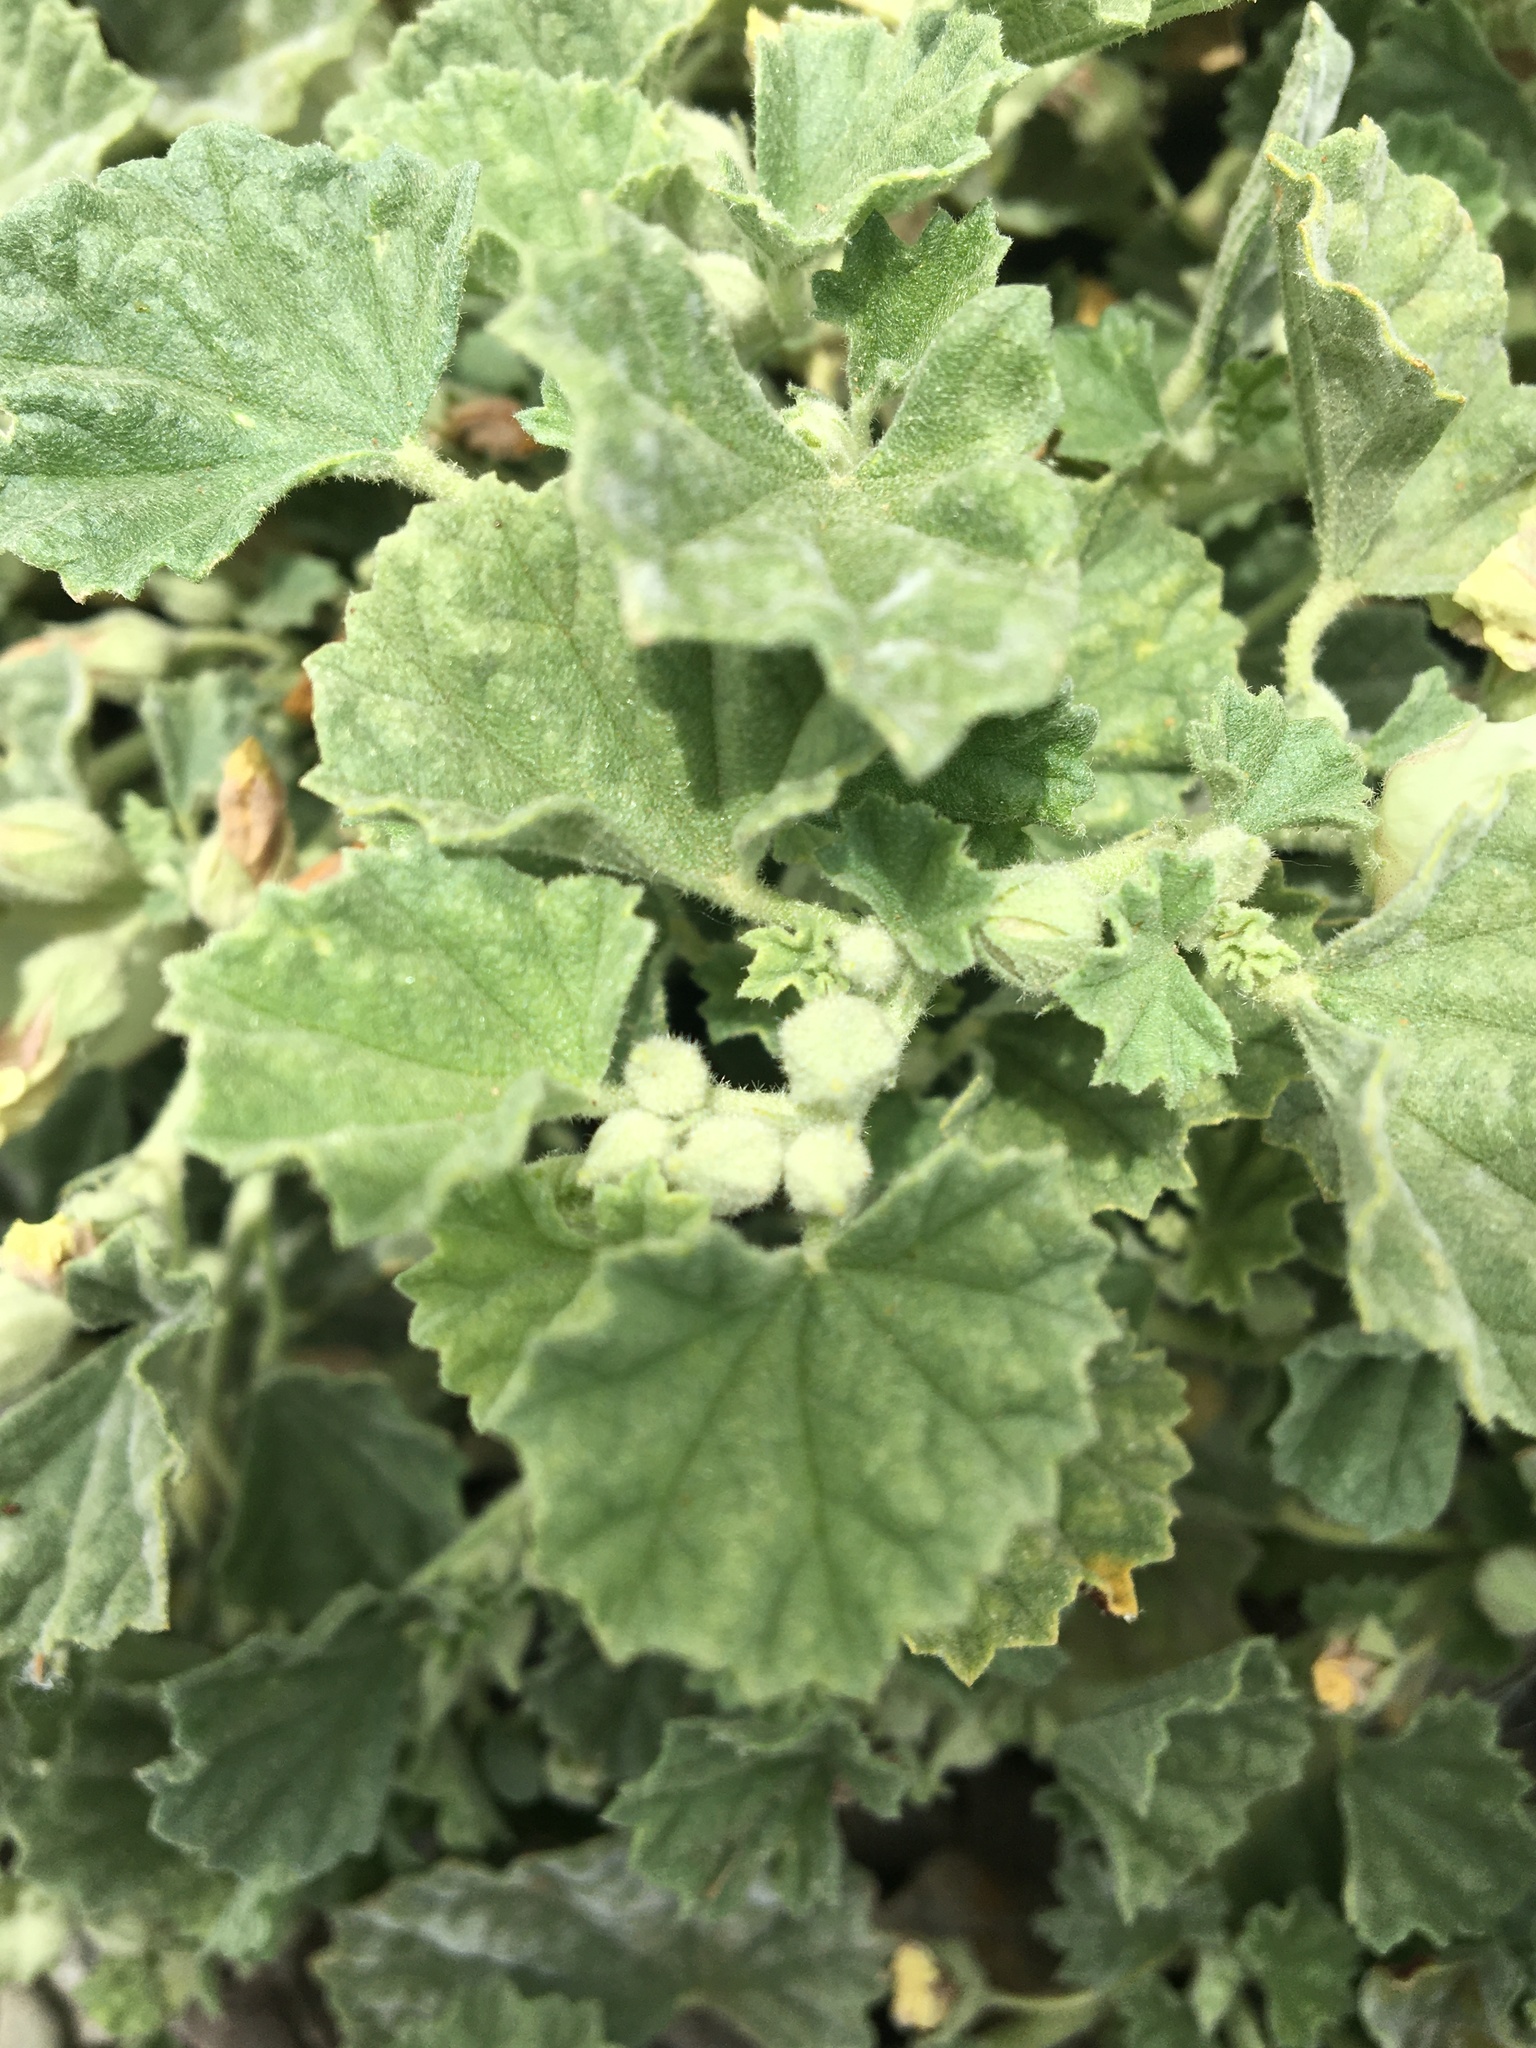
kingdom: Plantae
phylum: Tracheophyta
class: Magnoliopsida
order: Malvales
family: Malvaceae
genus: Malvella
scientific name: Malvella leprosa
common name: Alkali-mallow
